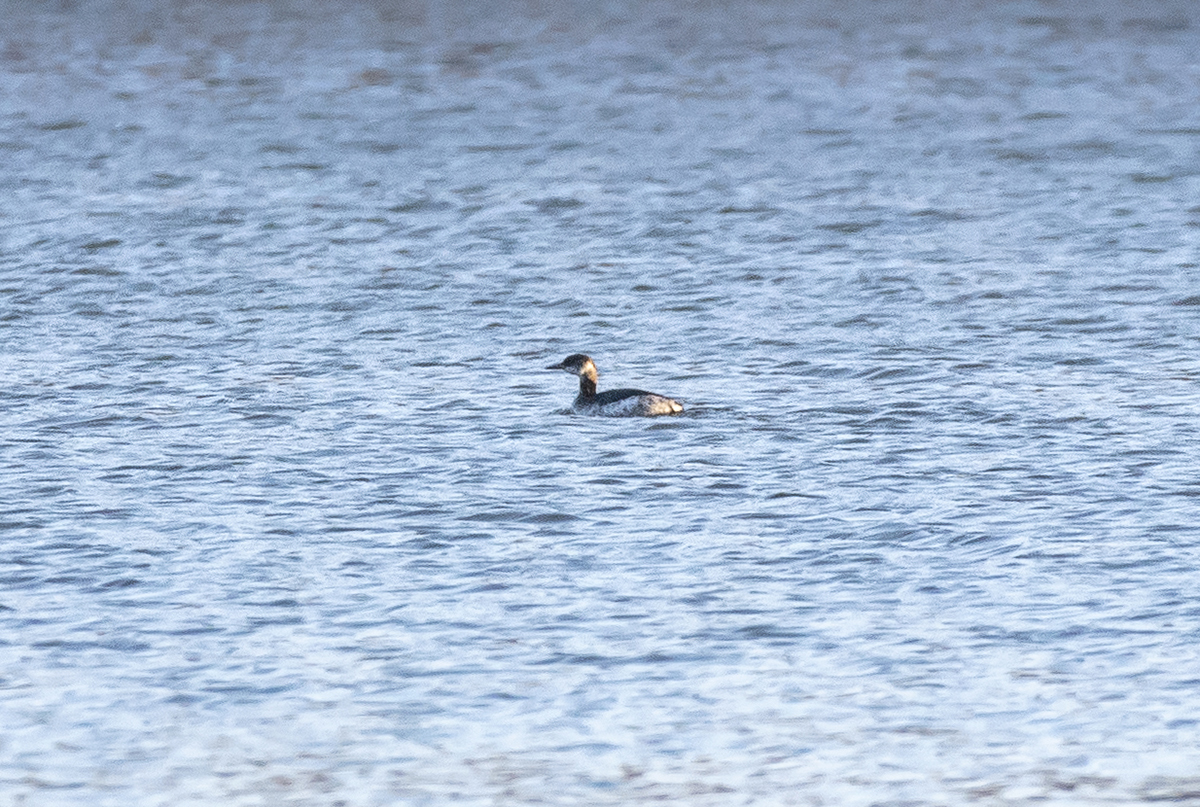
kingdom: Animalia
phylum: Chordata
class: Aves
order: Podicipediformes
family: Podicipedidae
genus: Podiceps
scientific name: Podiceps grisegena
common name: Red-necked grebe
